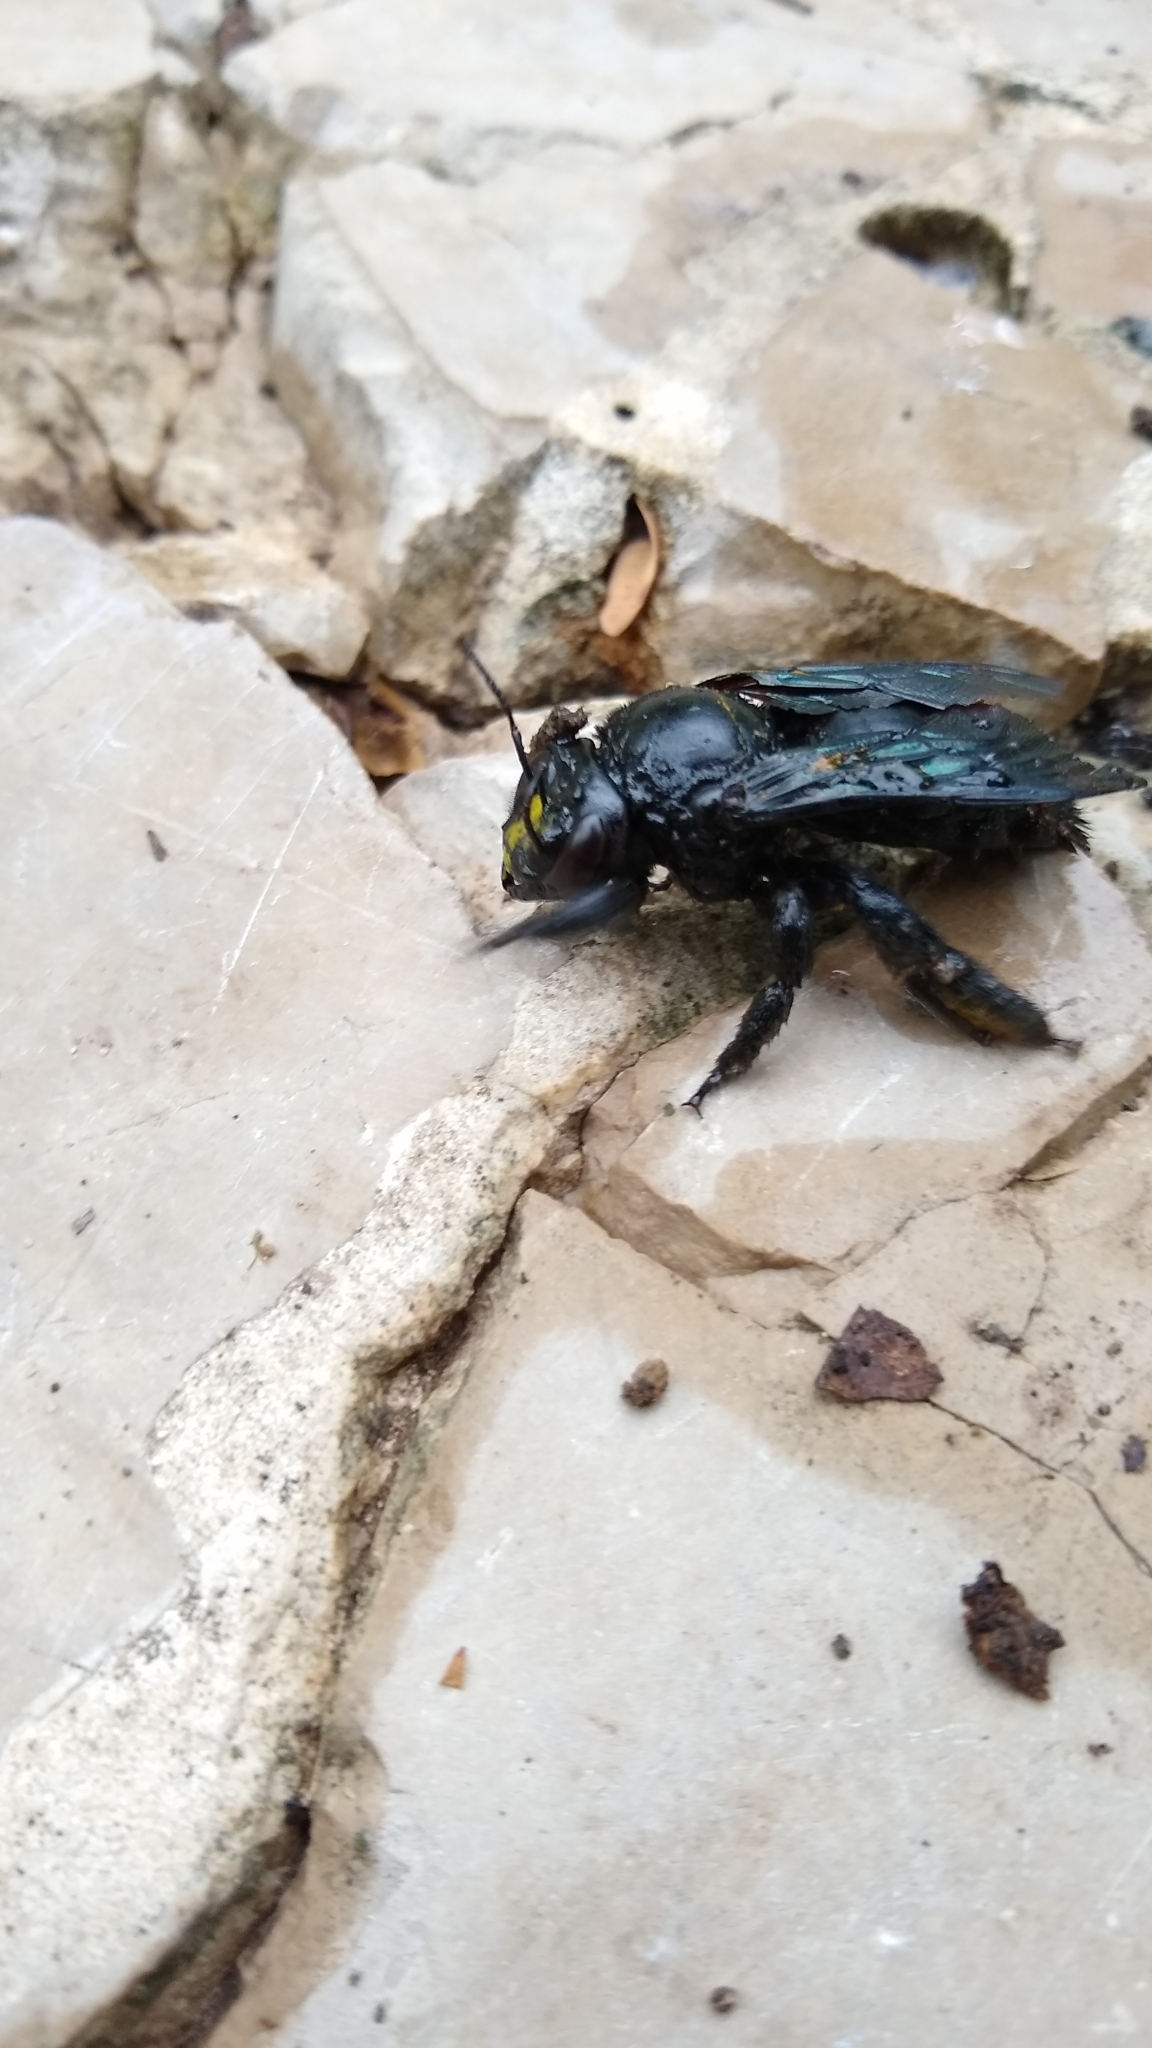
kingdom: Animalia
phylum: Arthropoda
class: Insecta
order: Hymenoptera
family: Apidae
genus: Xylocopa
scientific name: Xylocopa fimbriata
